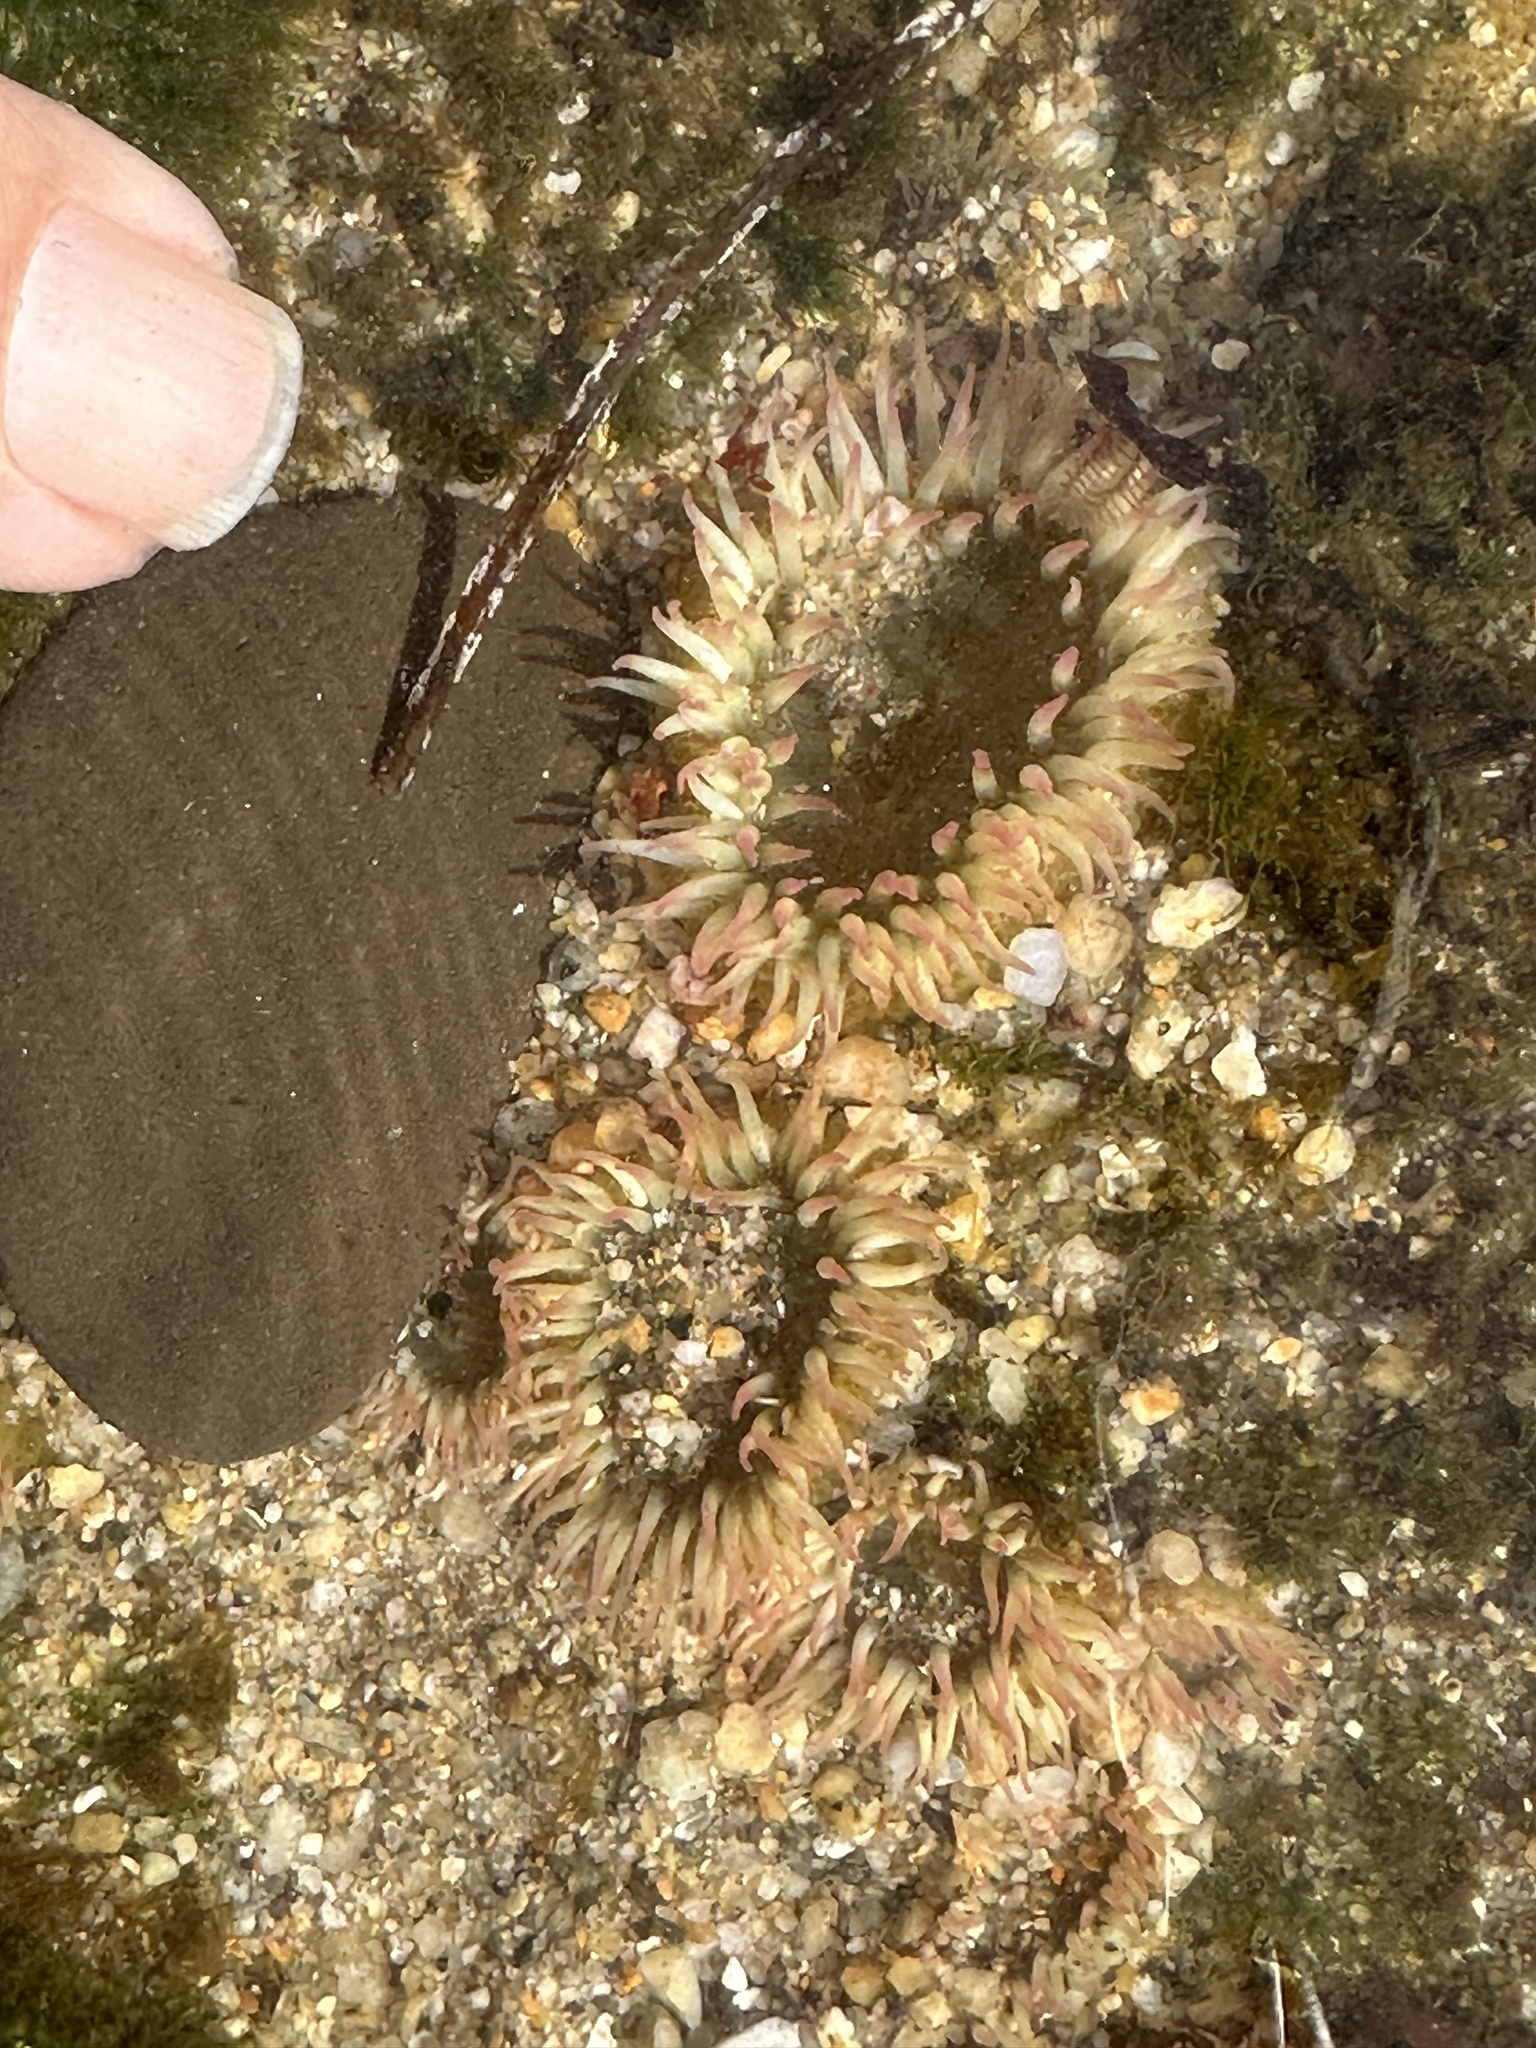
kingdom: Animalia
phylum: Cnidaria
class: Anthozoa
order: Actiniaria
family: Actiniidae
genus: Anthopleura
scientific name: Anthopleura elegantissima
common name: Clonal anemone
